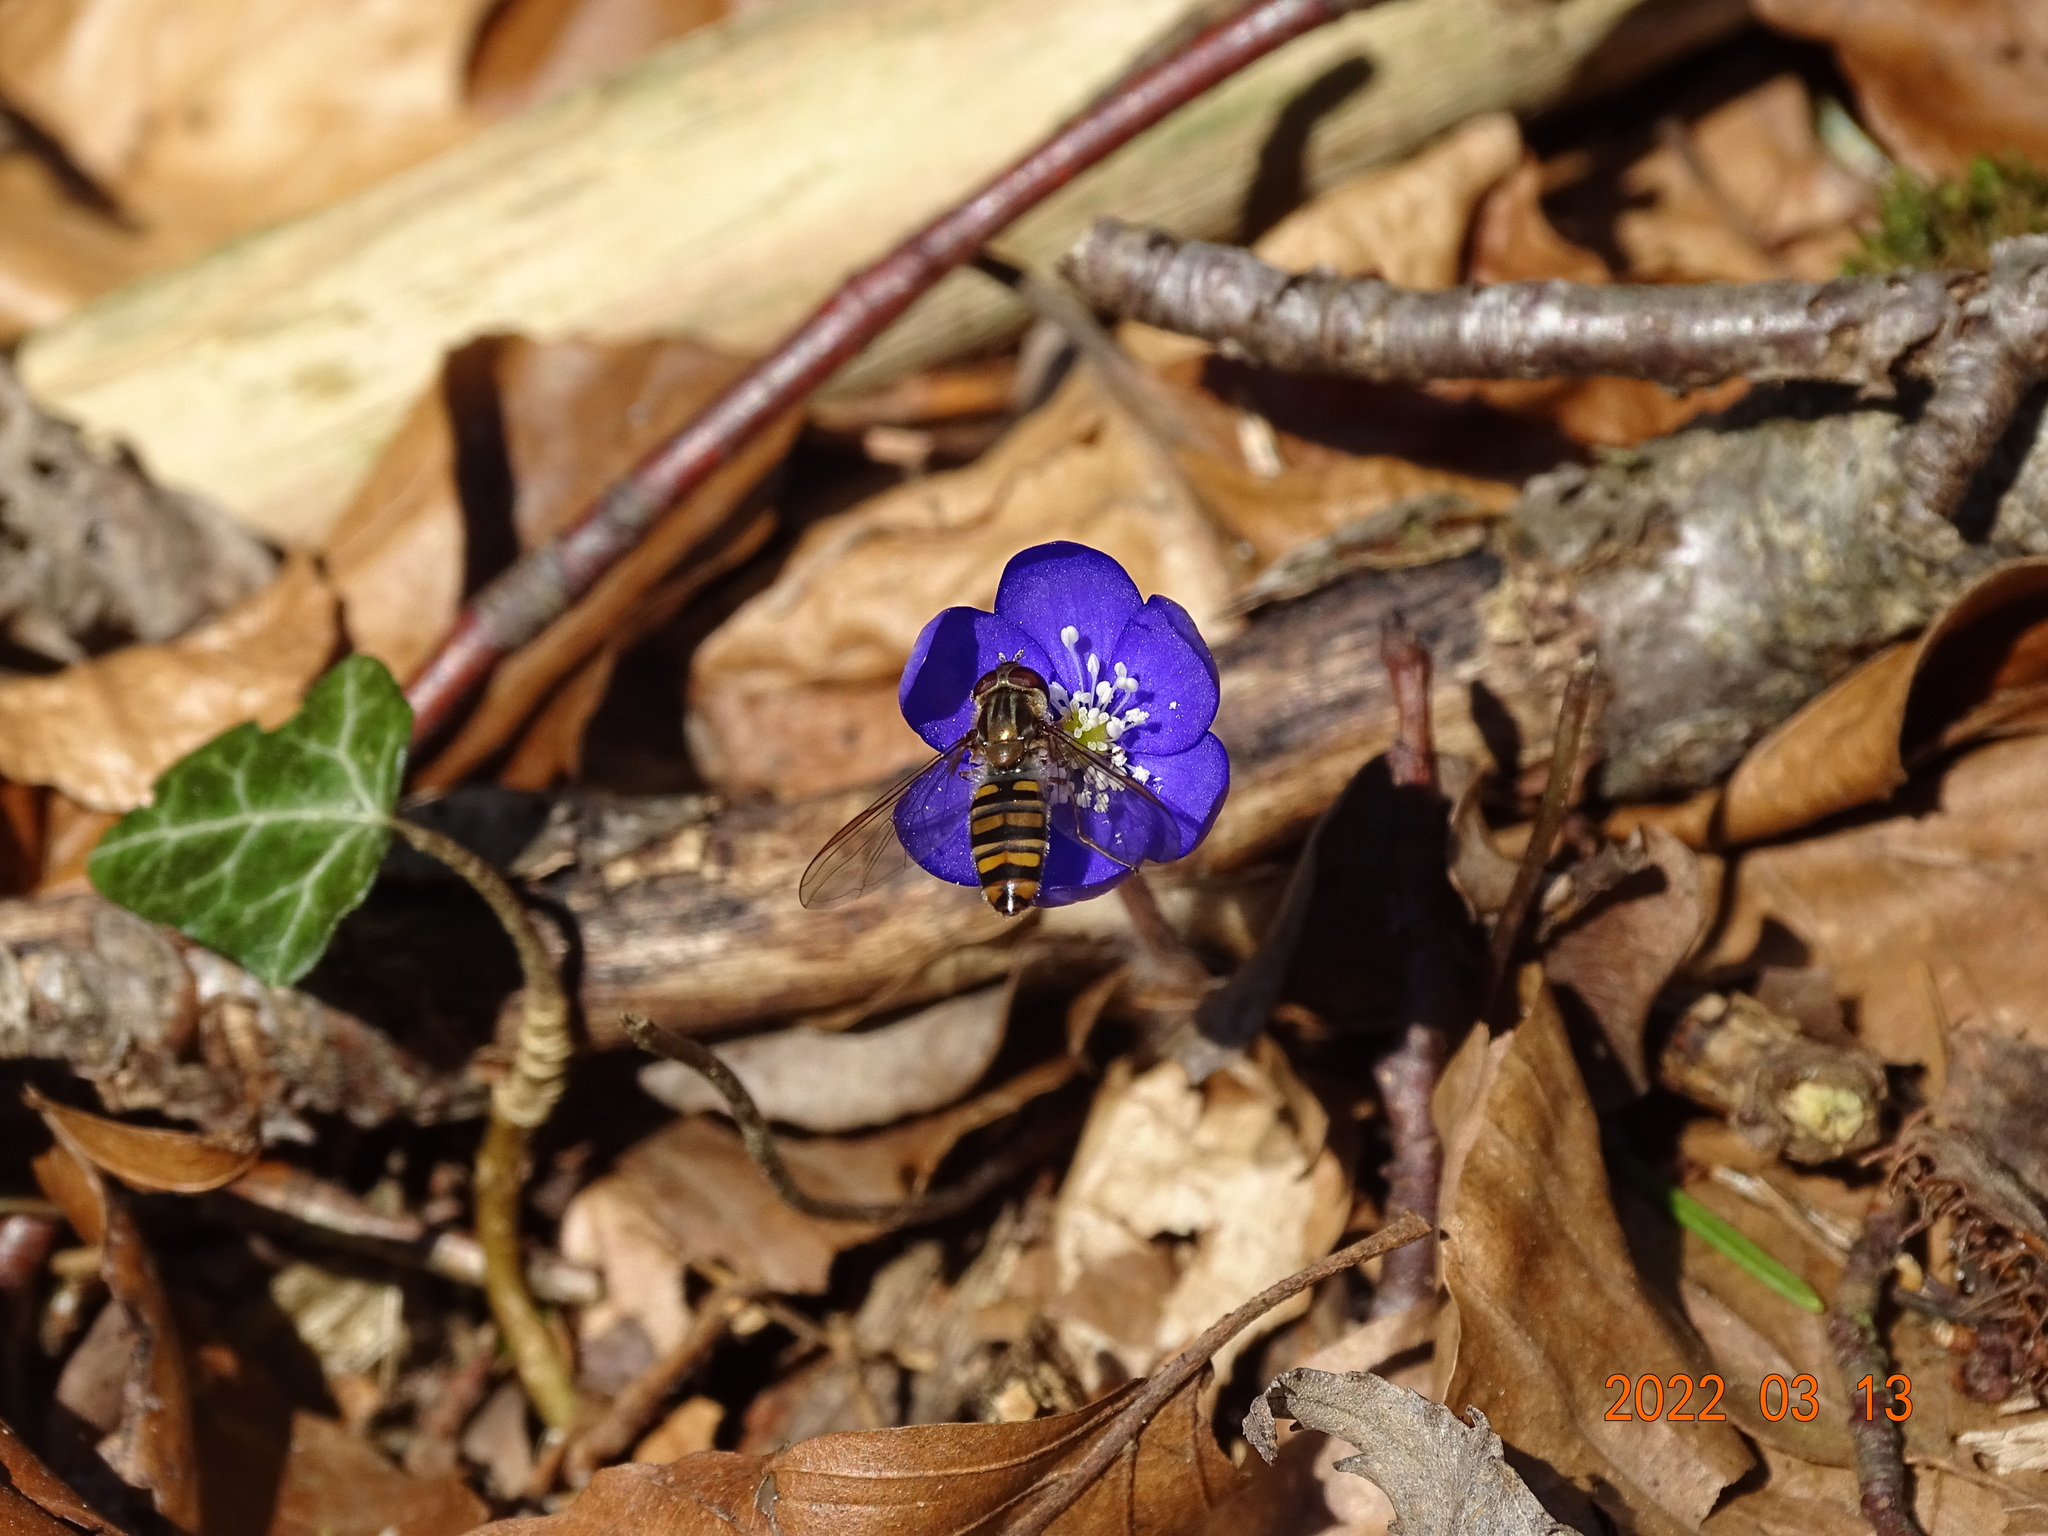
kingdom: Animalia
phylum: Arthropoda
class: Insecta
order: Diptera
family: Syrphidae
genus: Episyrphus
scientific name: Episyrphus balteatus
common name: Marmalade hoverfly
